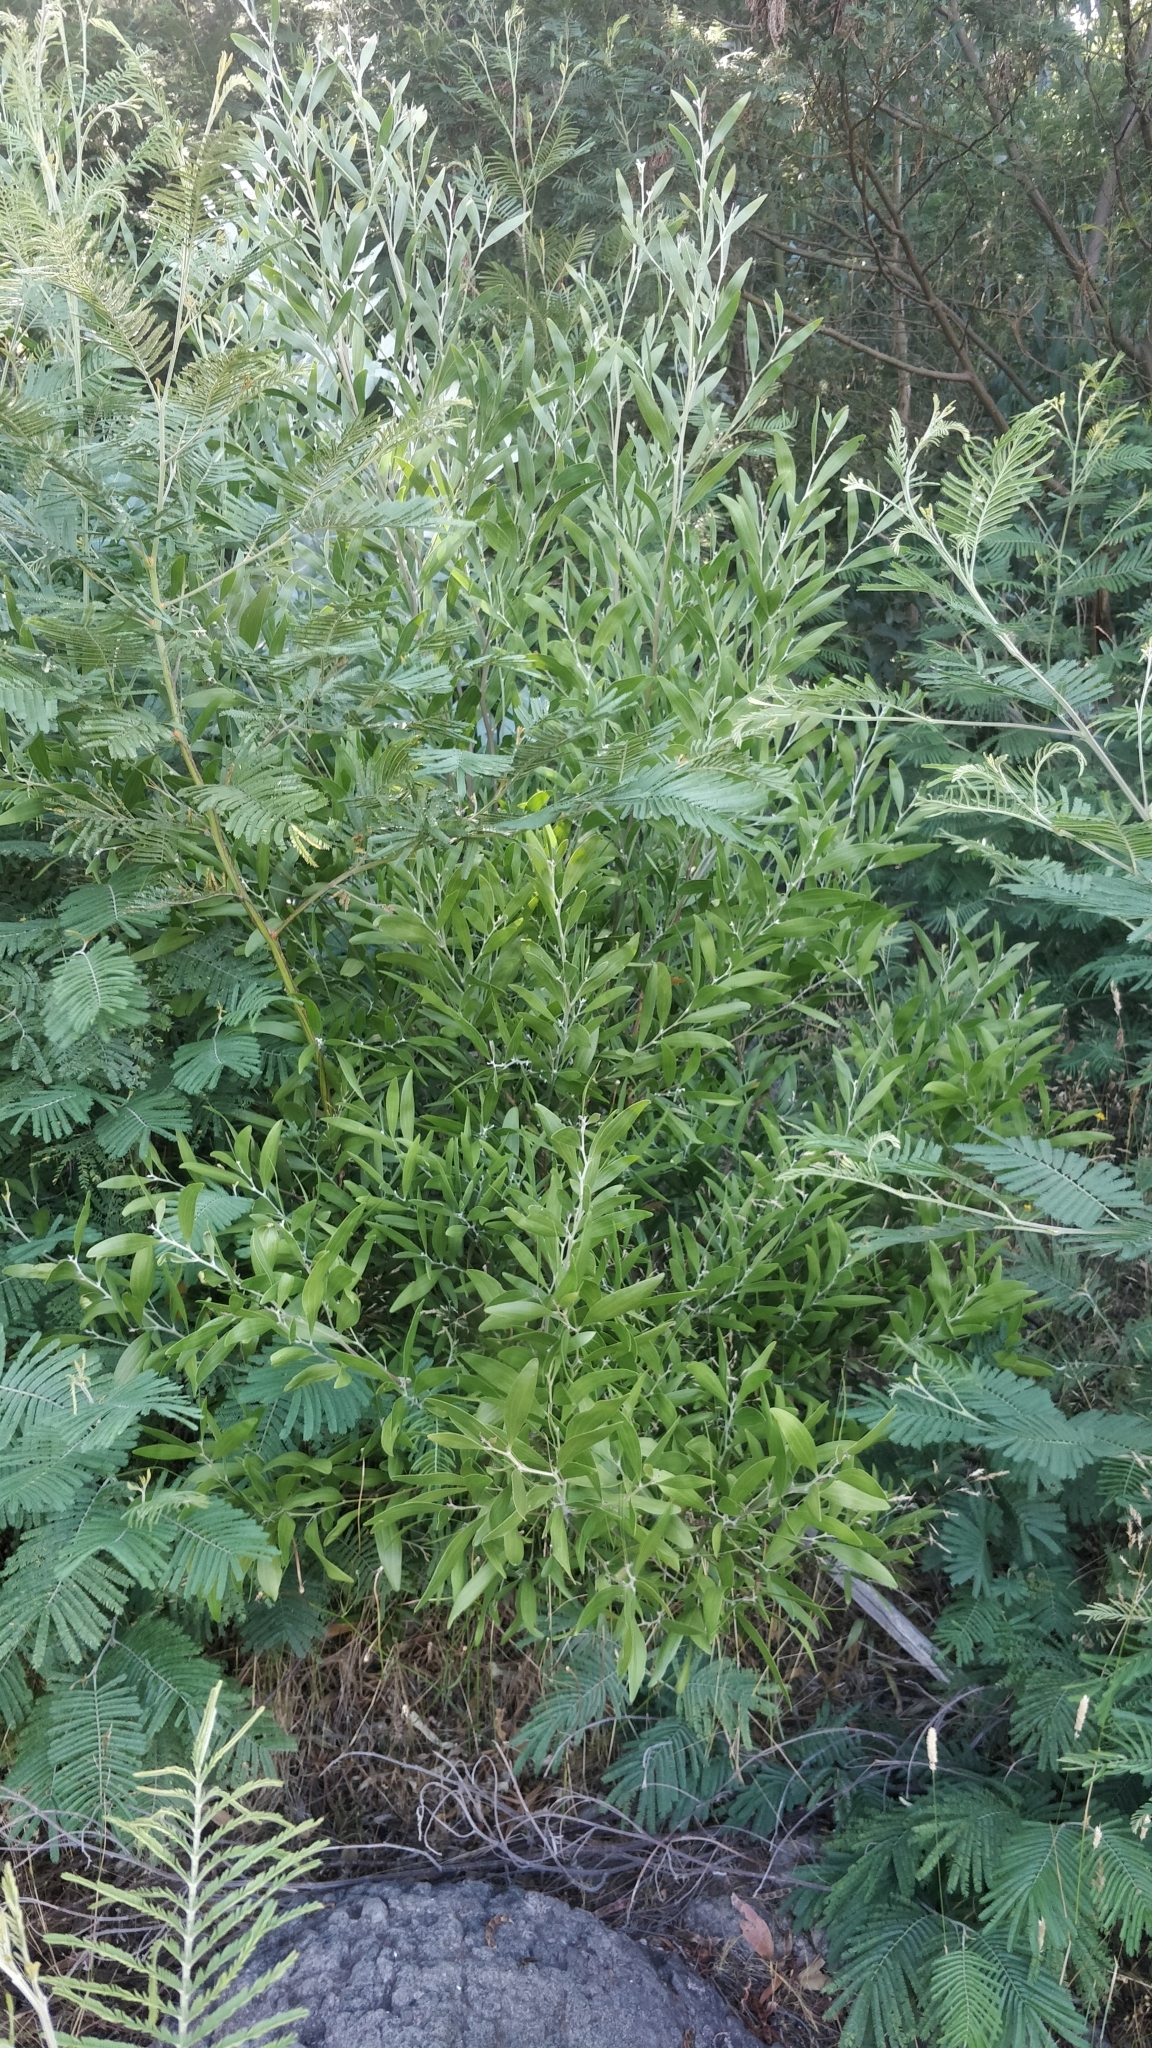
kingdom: Plantae
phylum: Tracheophyta
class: Magnoliopsida
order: Fabales
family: Fabaceae
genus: Acacia
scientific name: Acacia melanoxylon
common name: Blackwood
